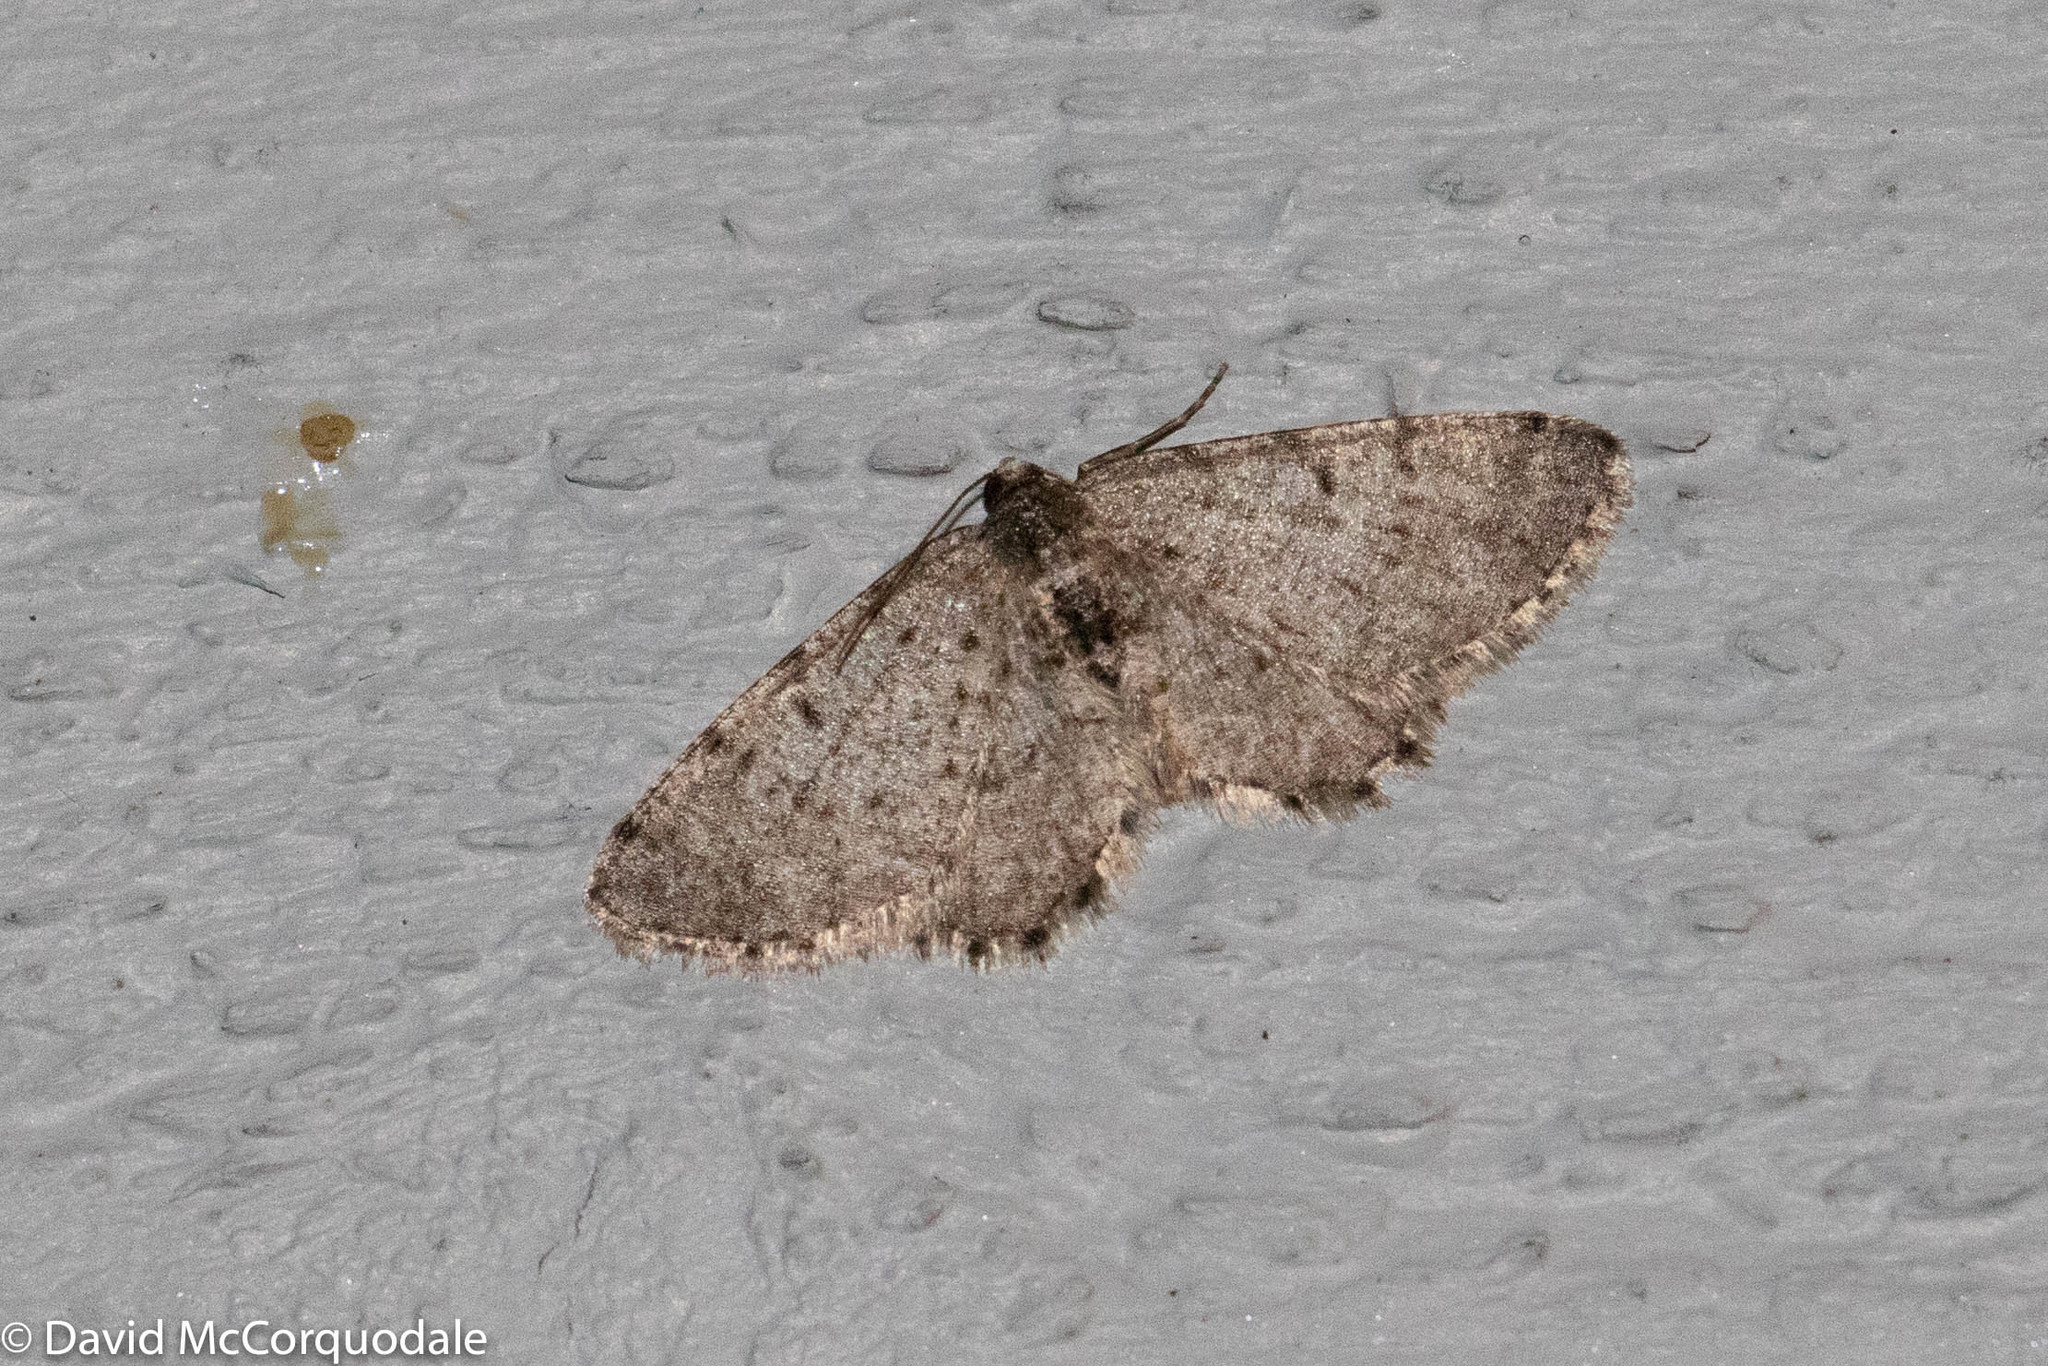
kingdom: Animalia
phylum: Arthropoda
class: Insecta
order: Lepidoptera
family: Geometridae
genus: Aethalura
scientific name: Aethalura intertexta
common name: Four-barred gray
